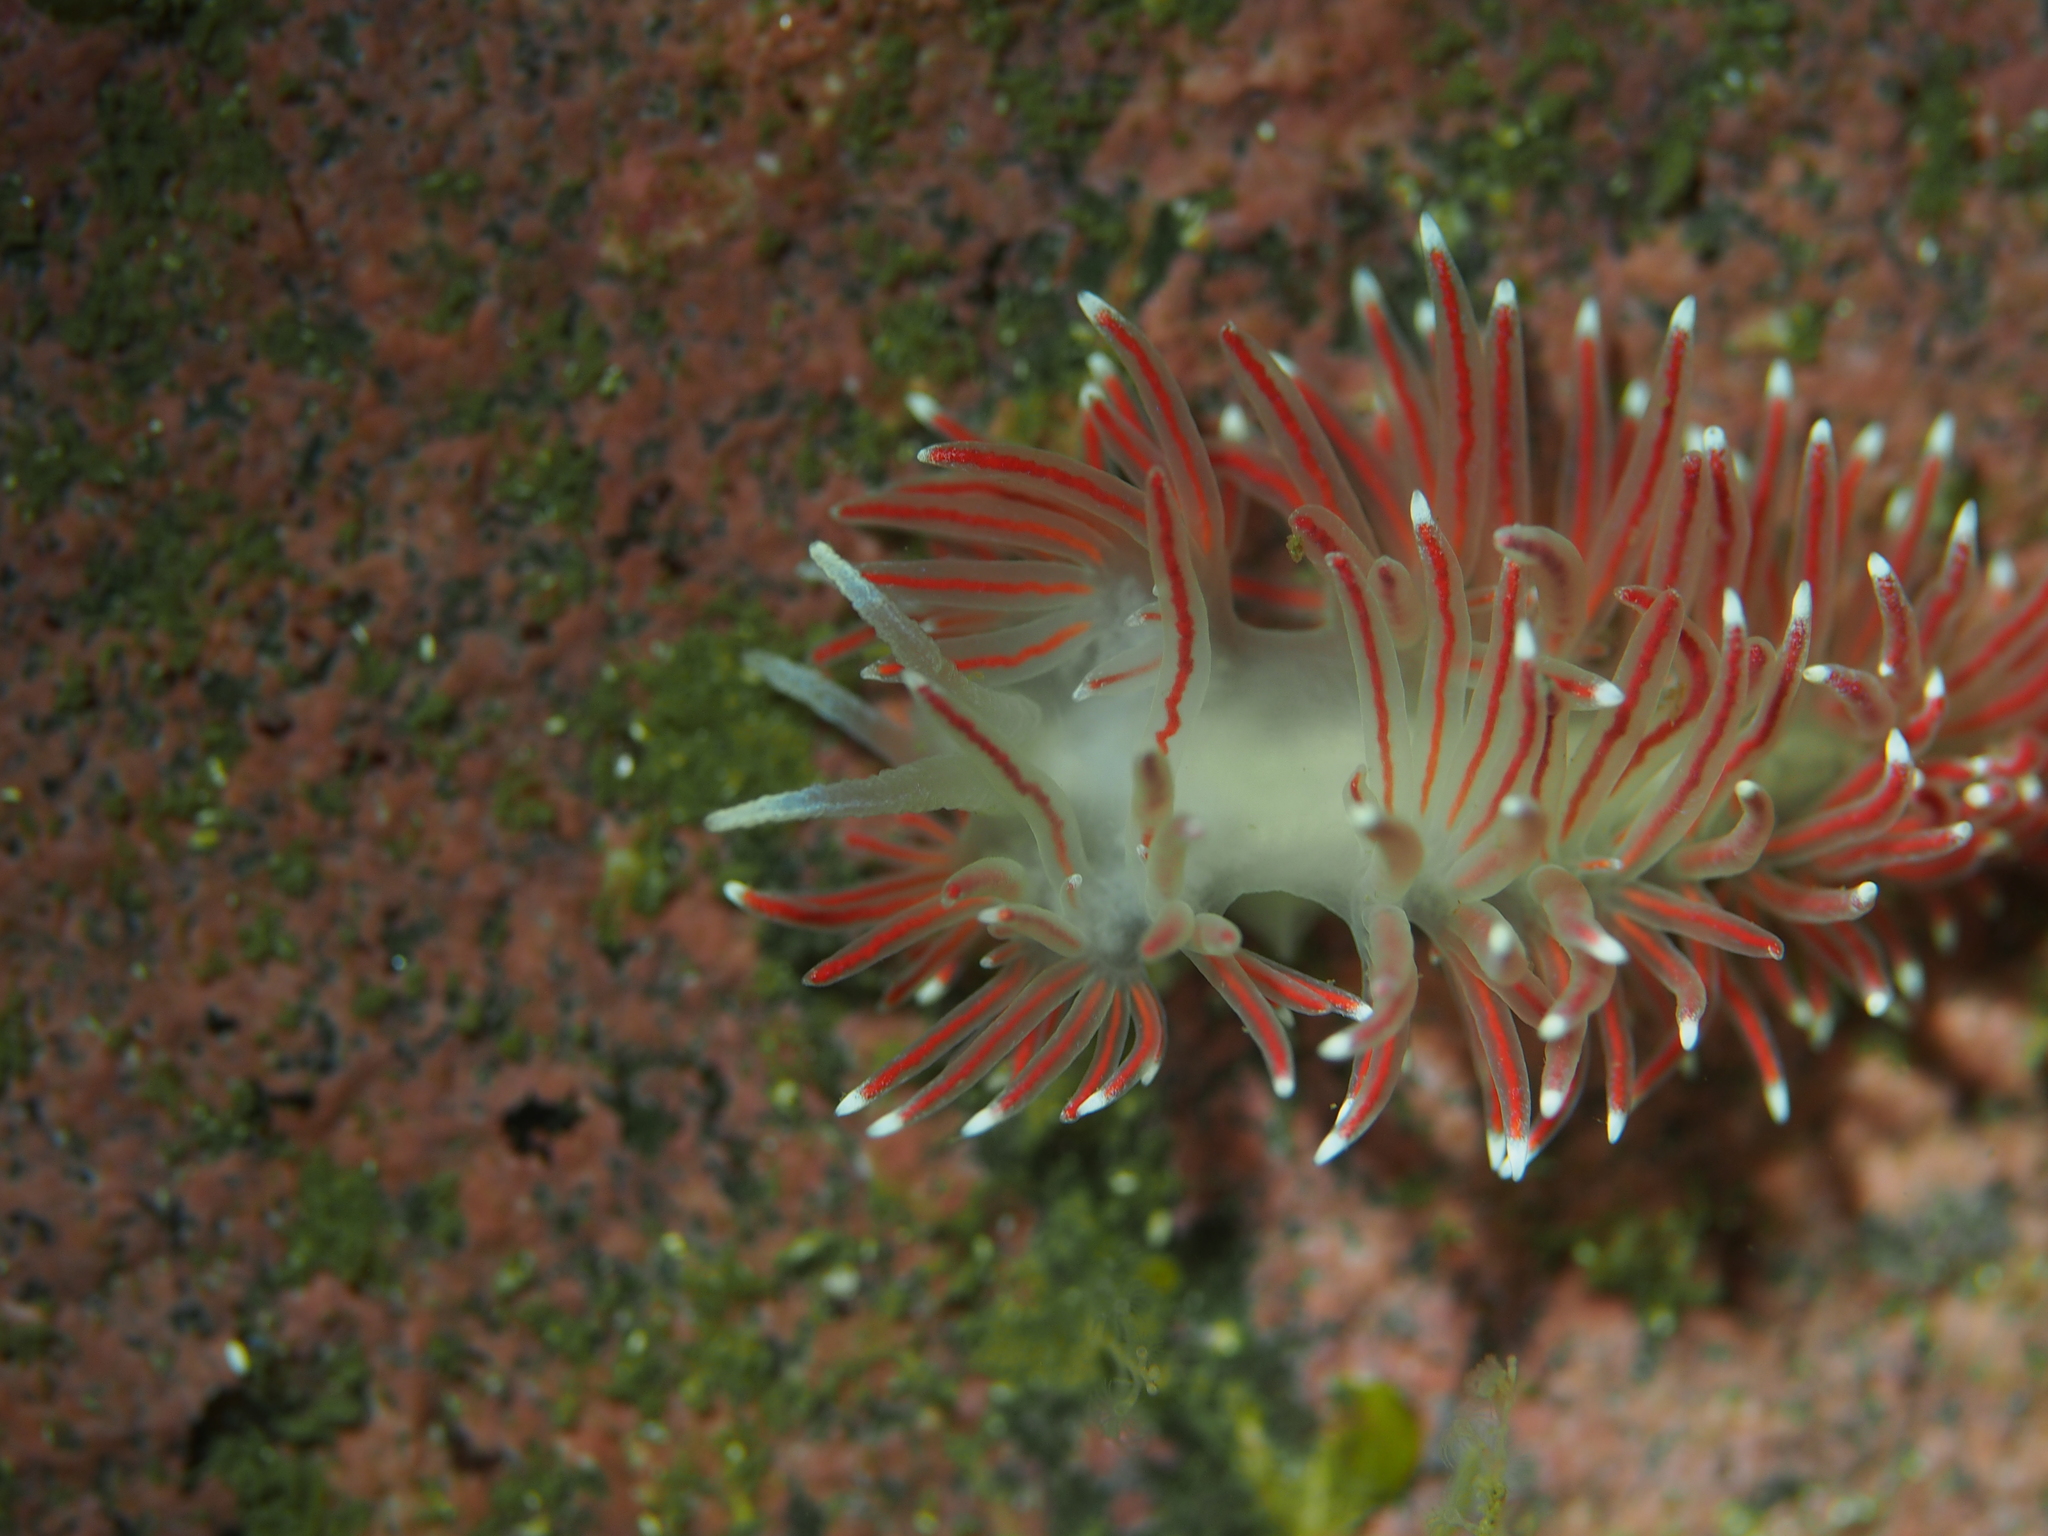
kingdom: Animalia
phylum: Mollusca
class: Gastropoda
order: Nudibranchia
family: Flabellinidae
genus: Carronella
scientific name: Carronella pellucida
